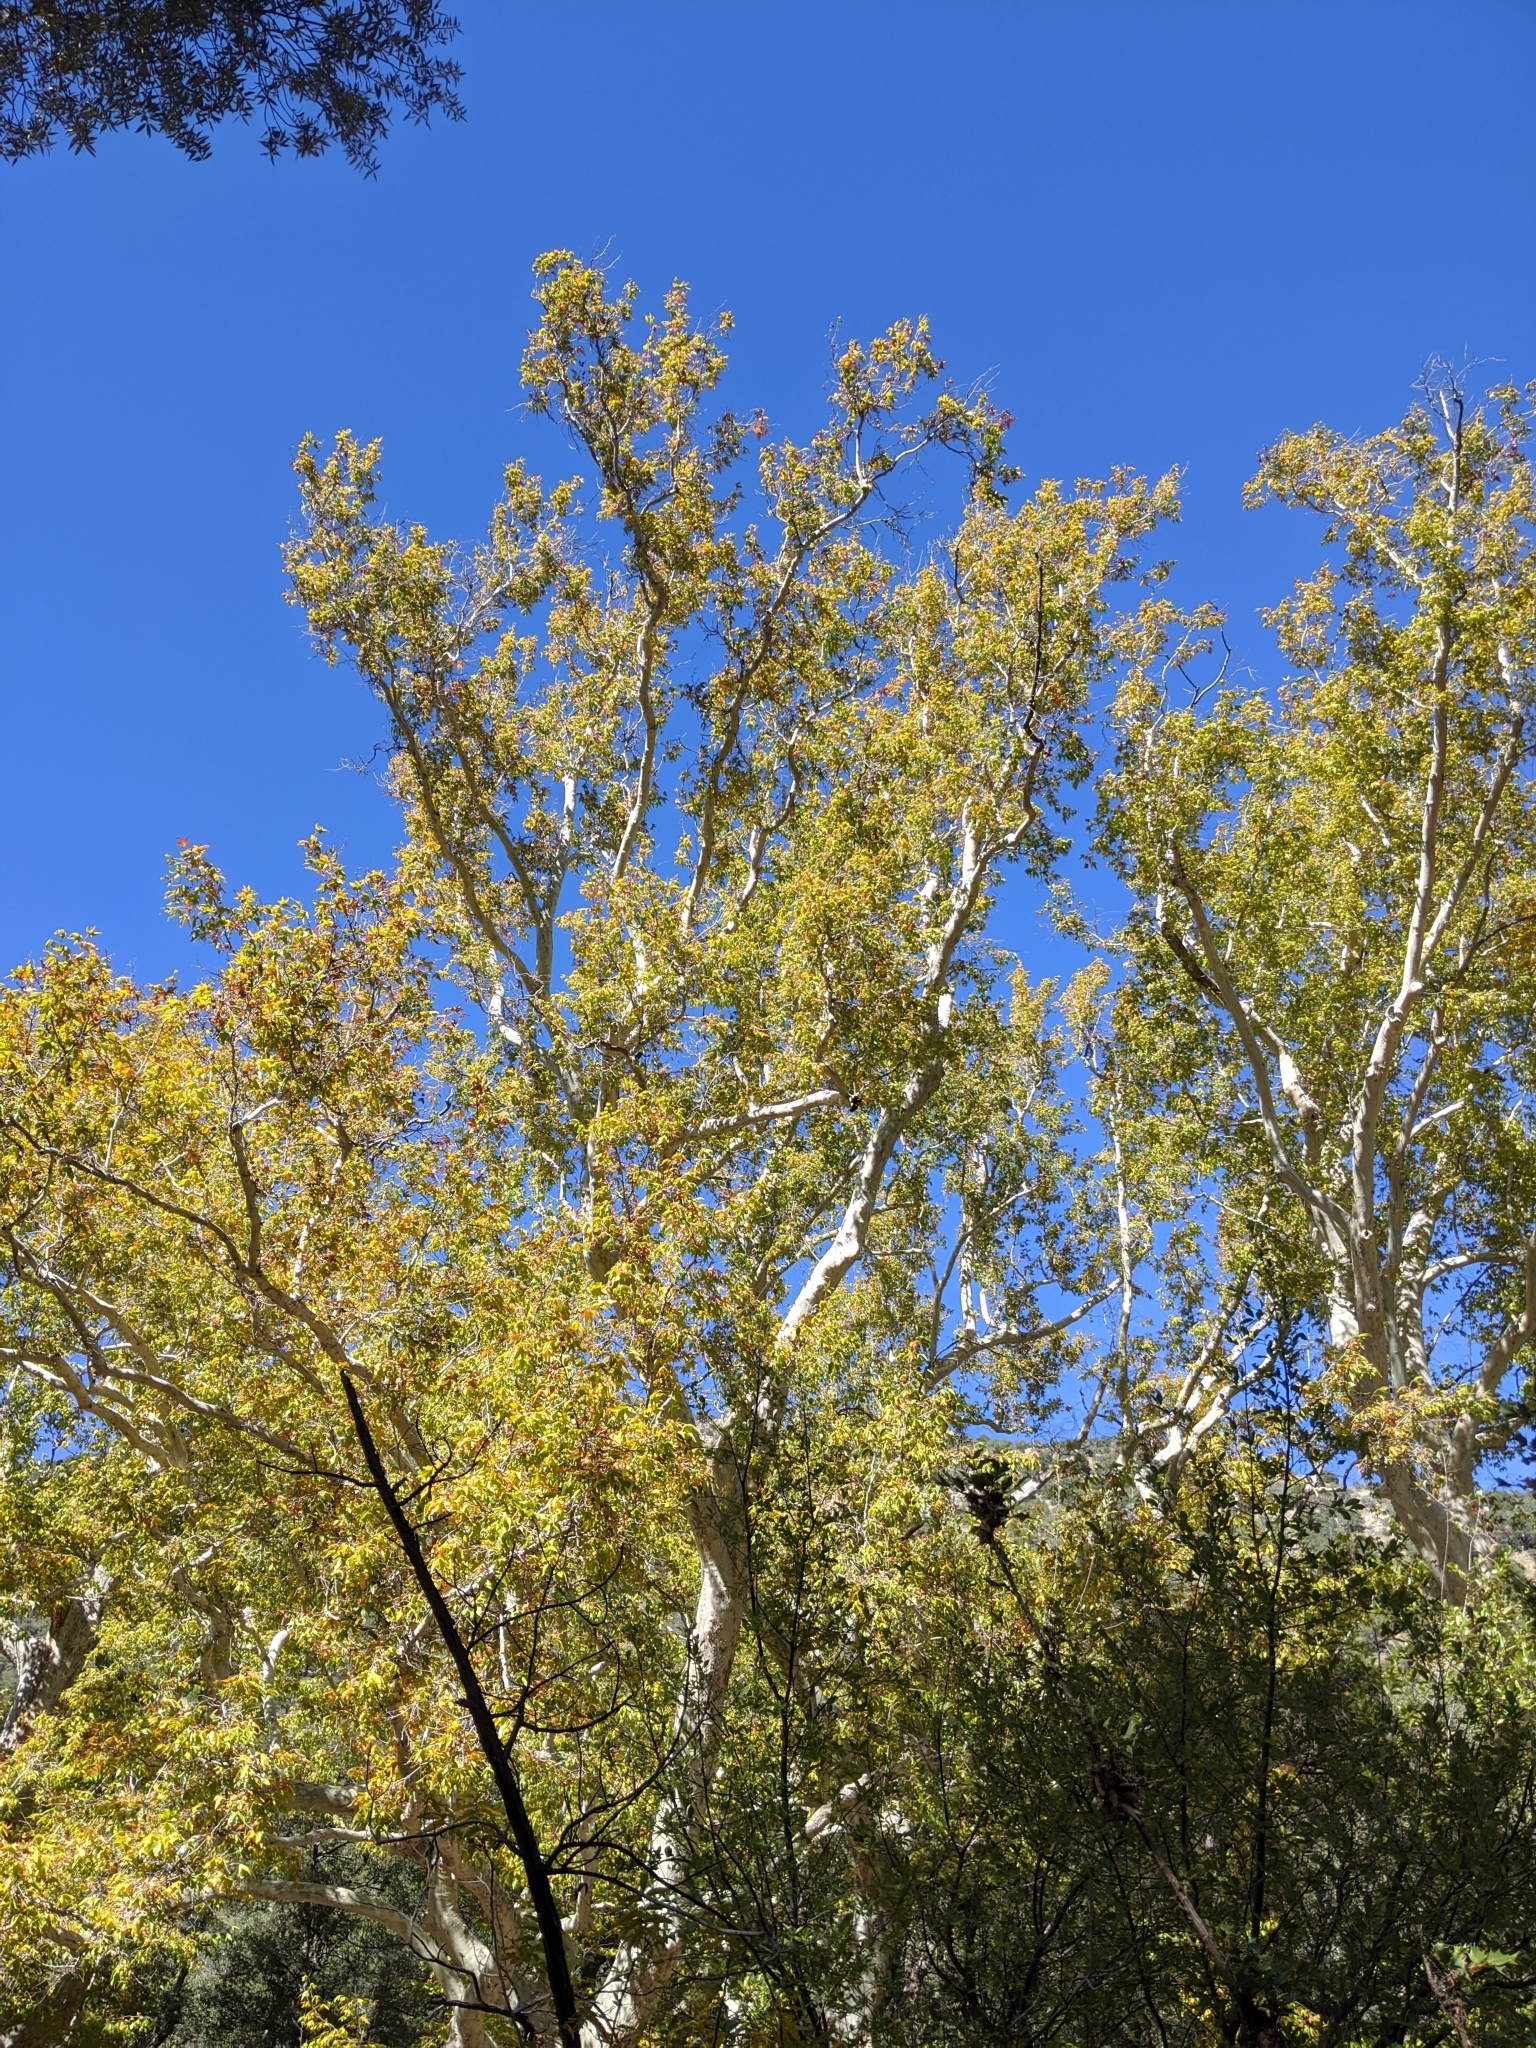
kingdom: Plantae
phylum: Tracheophyta
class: Magnoliopsida
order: Proteales
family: Platanaceae
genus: Platanus
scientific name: Platanus wrightii
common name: Arizona sycamore
